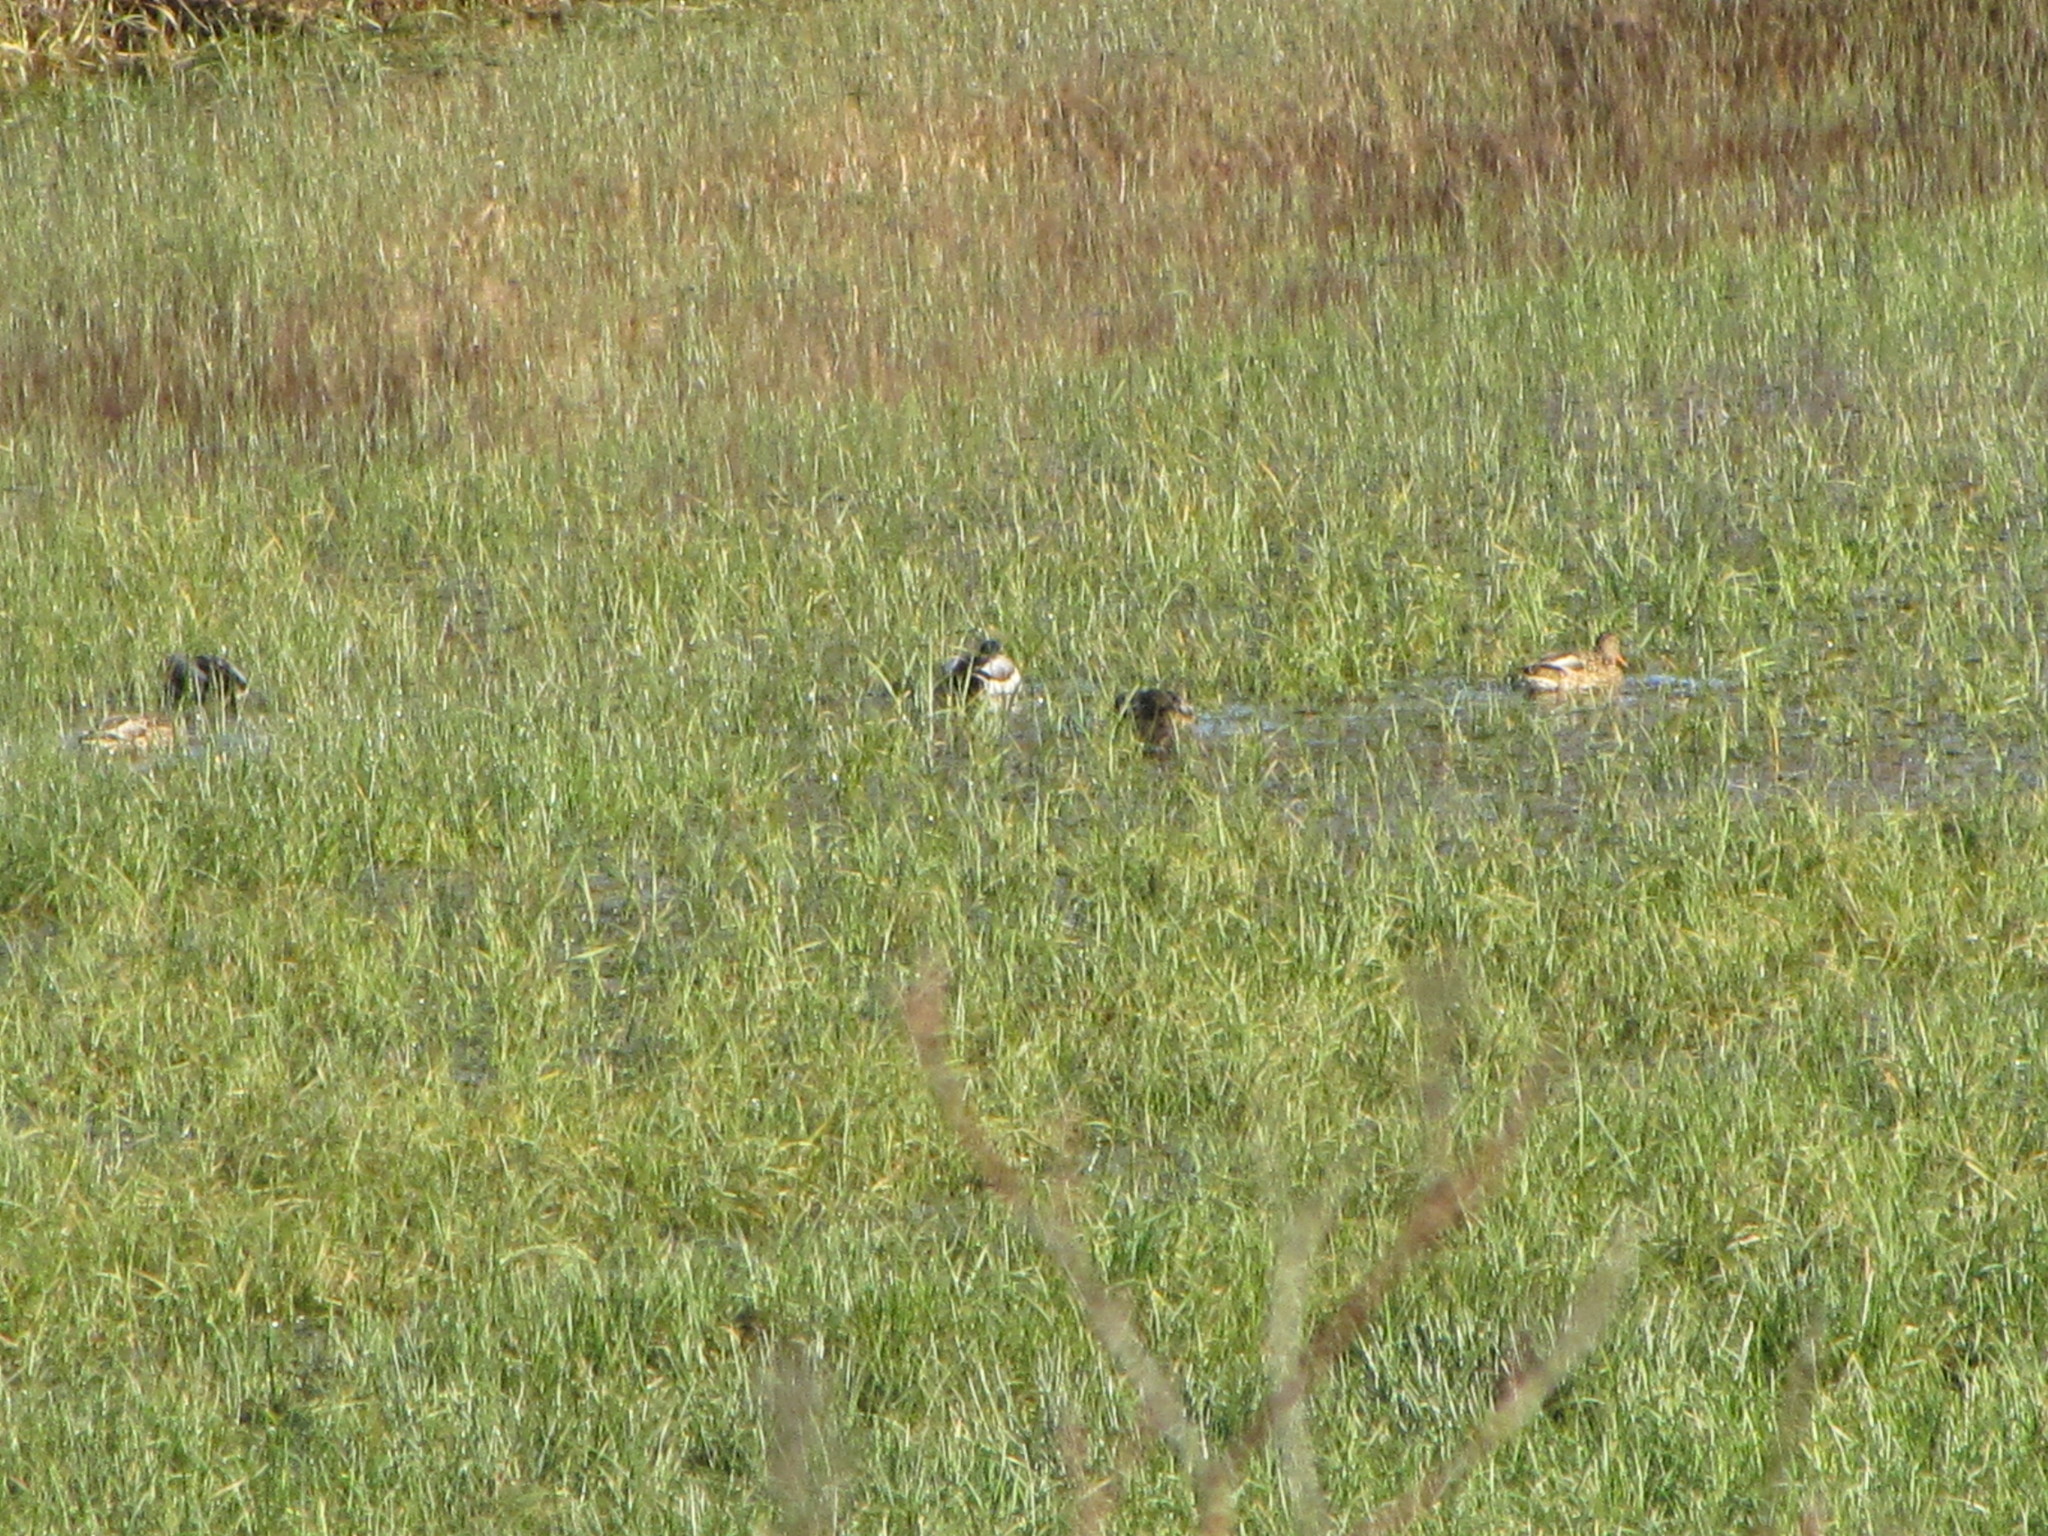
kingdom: Animalia
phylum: Chordata
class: Aves
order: Anseriformes
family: Anatidae
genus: Anas
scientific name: Anas platyrhynchos
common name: Mallard
